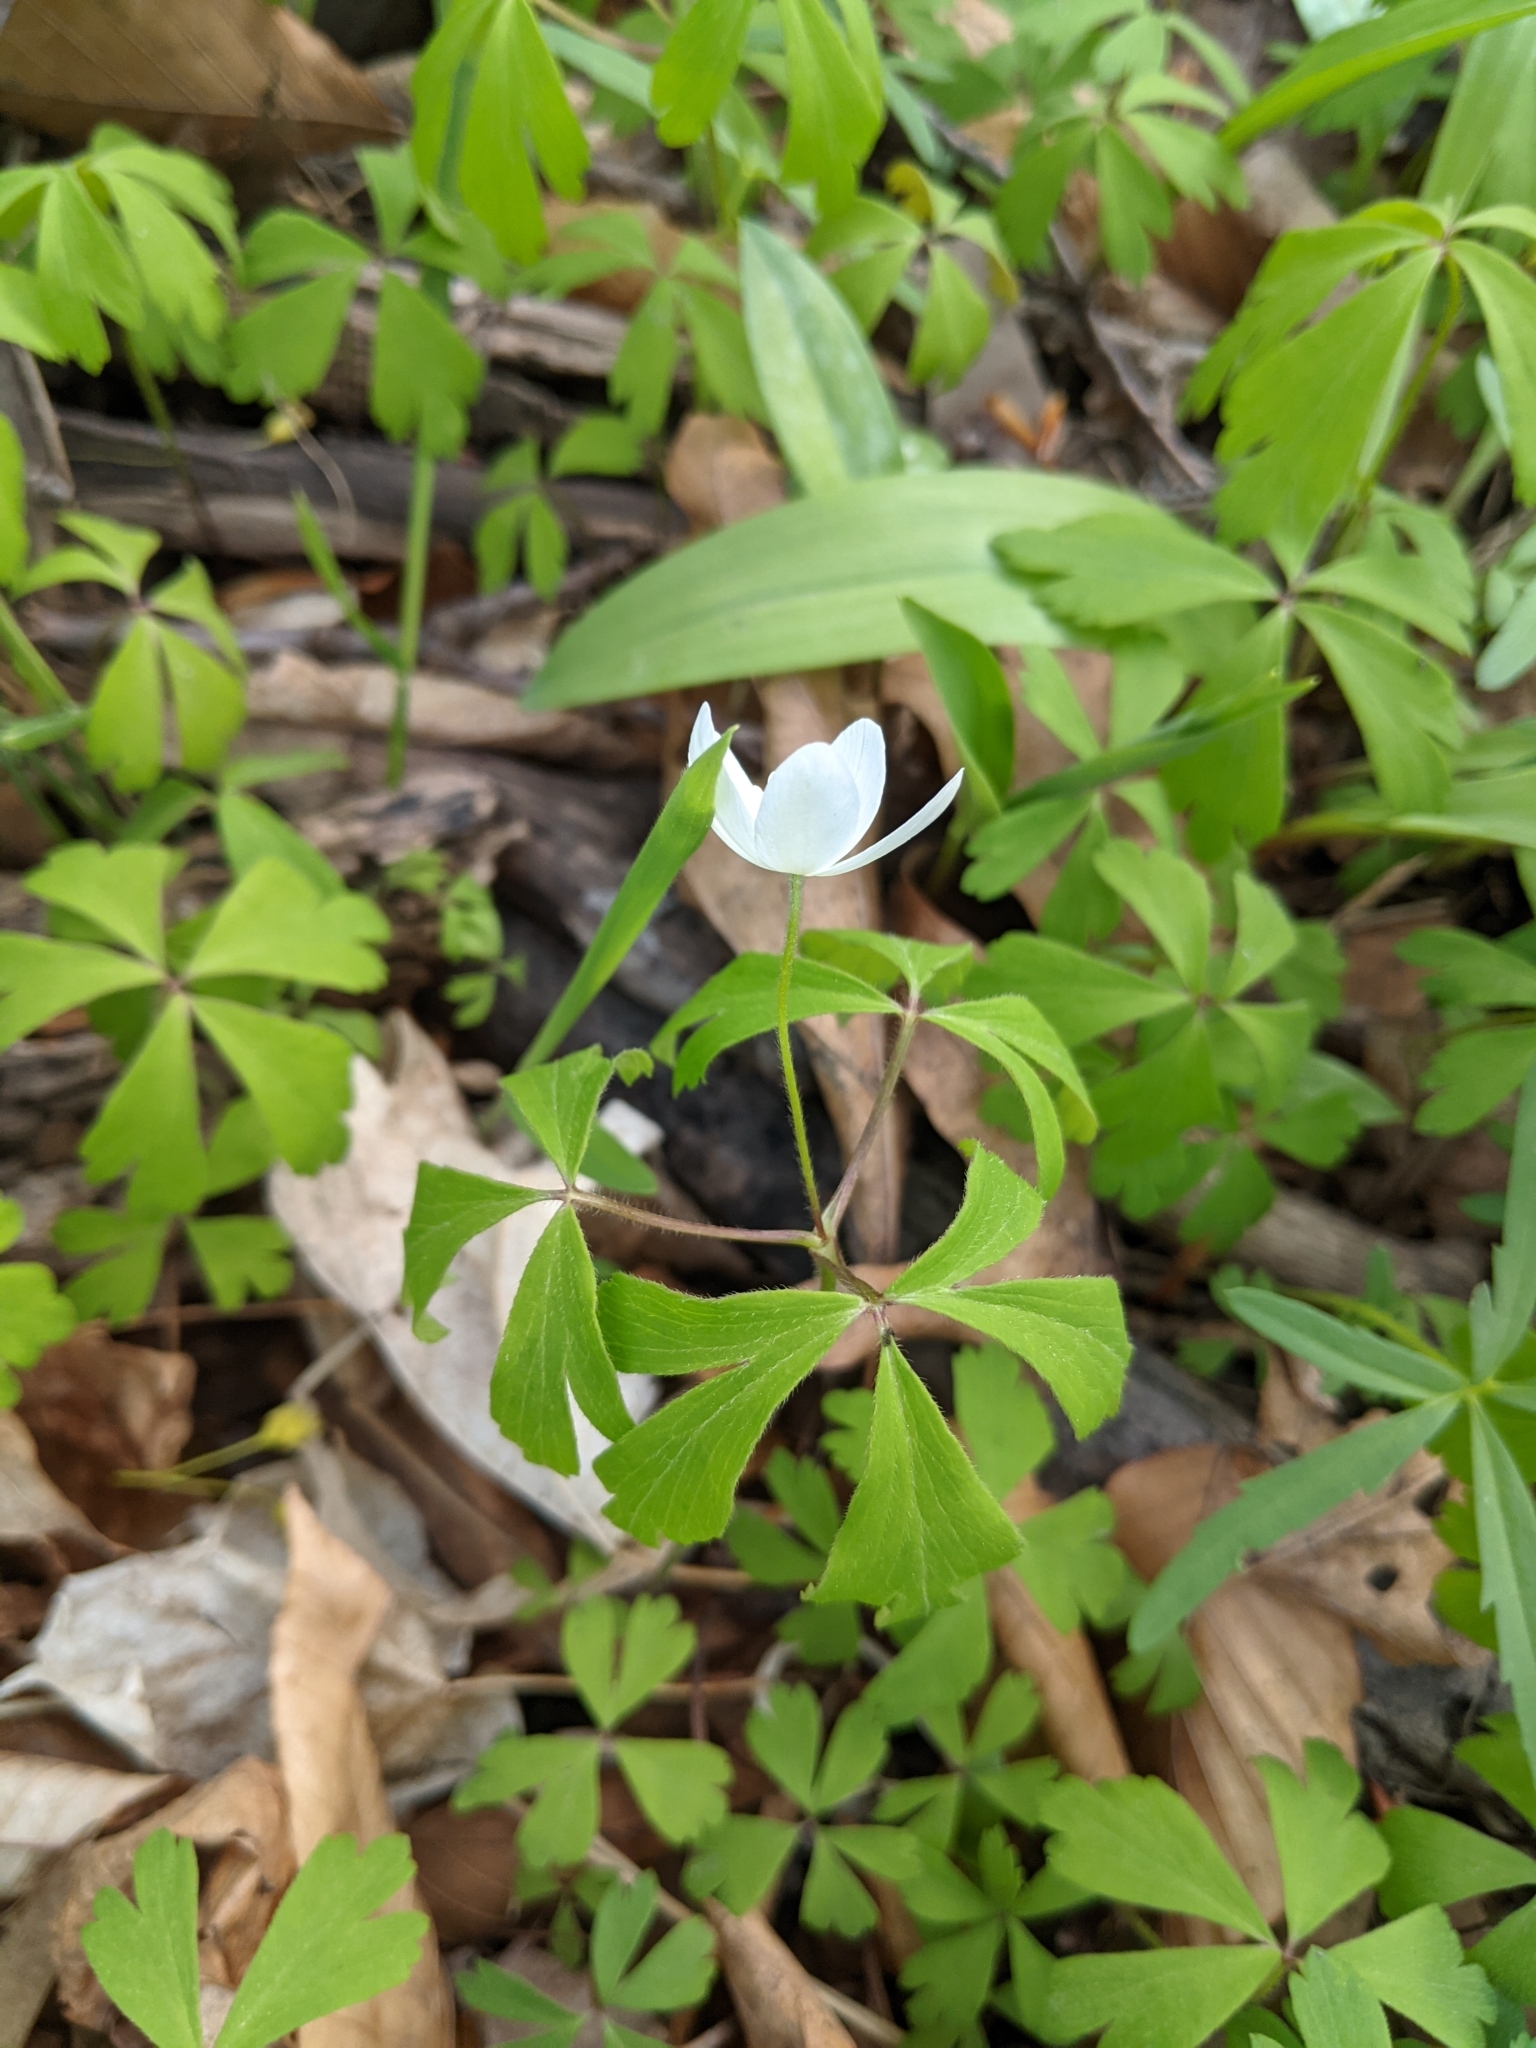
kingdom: Plantae
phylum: Tracheophyta
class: Magnoliopsida
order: Ranunculales
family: Ranunculaceae
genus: Anemone
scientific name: Anemone quinquefolia
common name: Wood anemone
